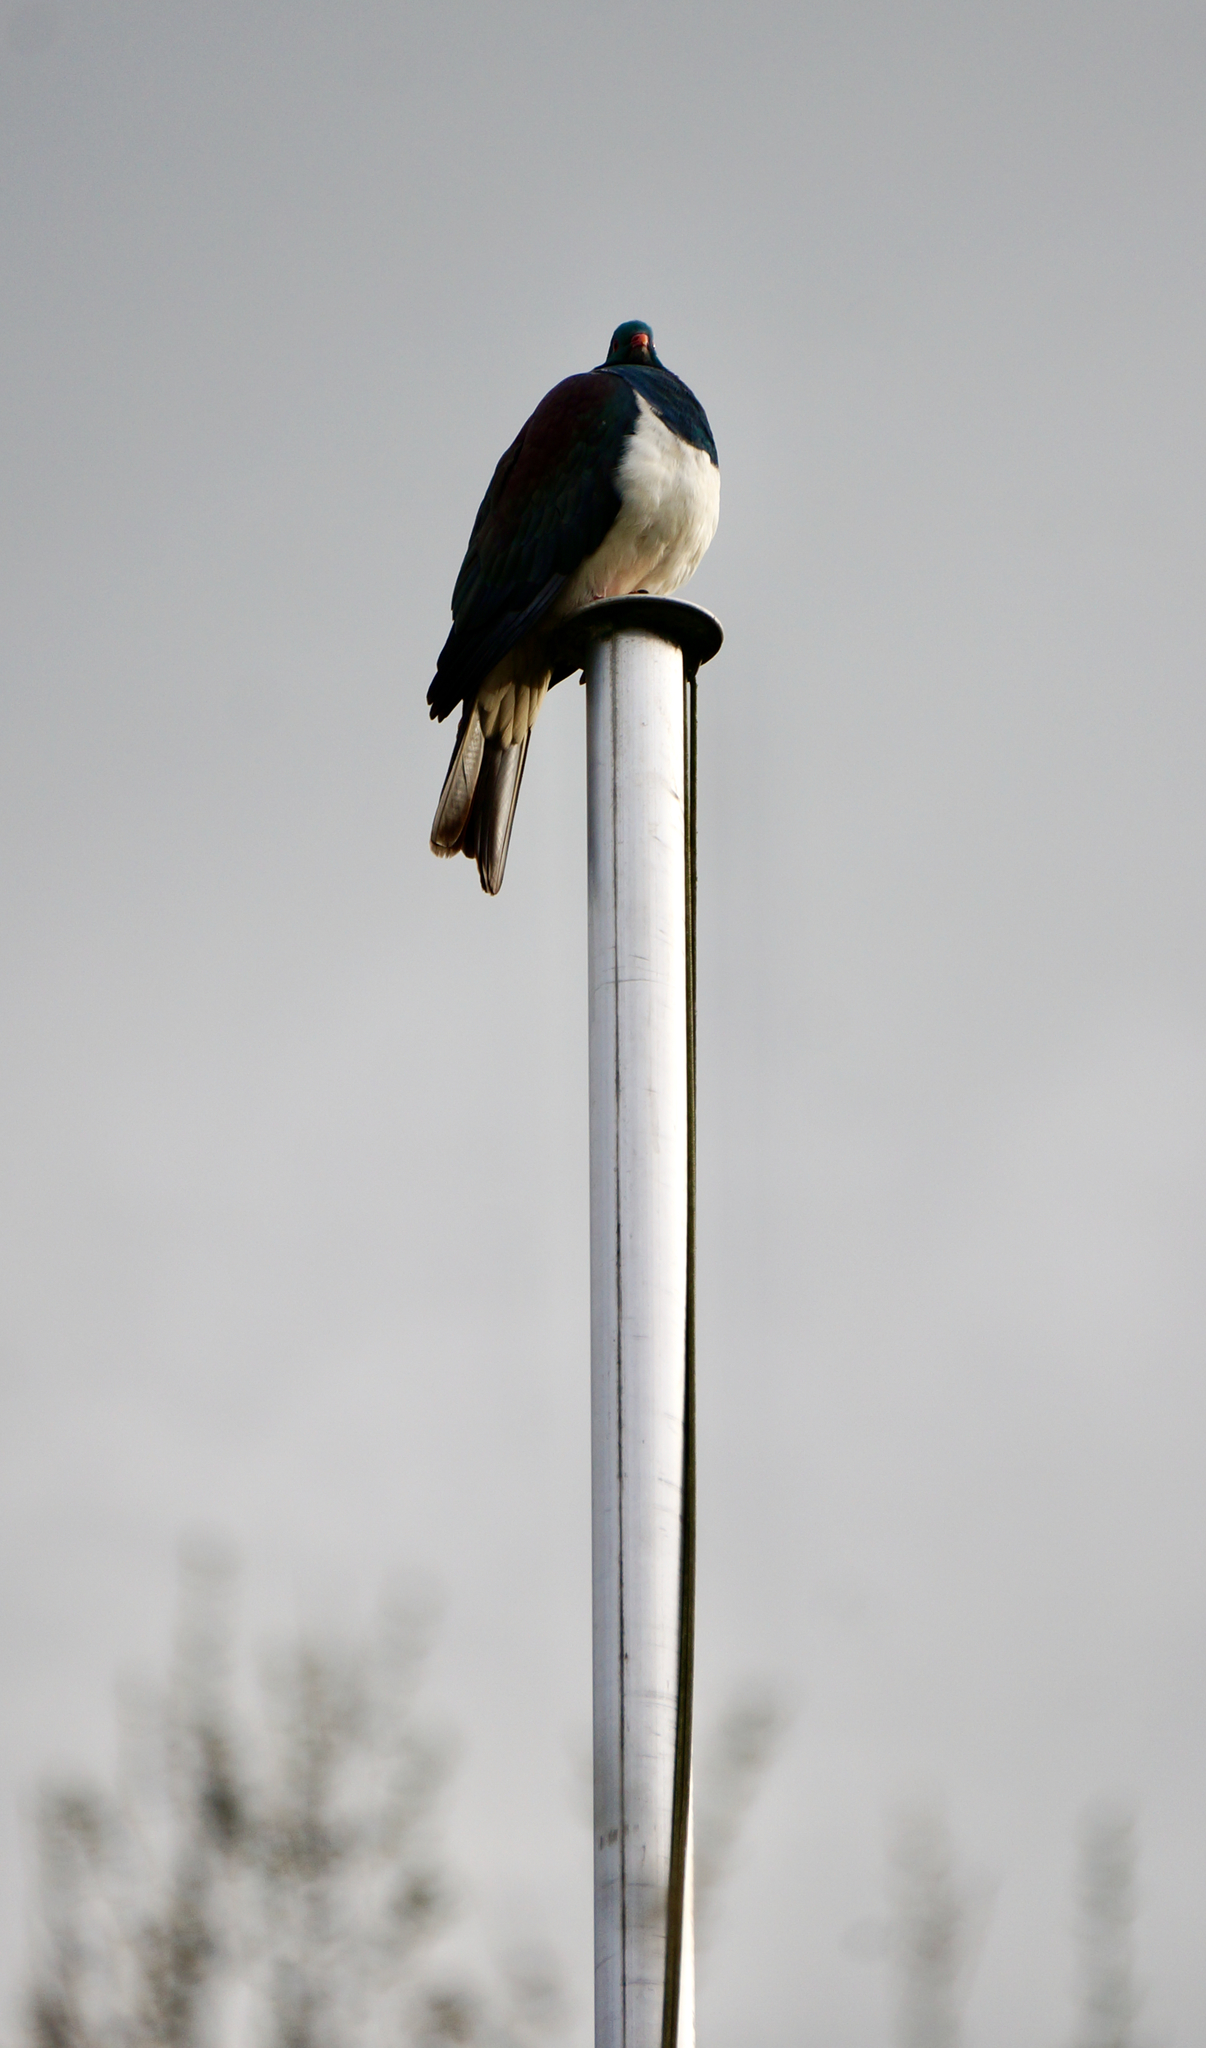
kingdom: Animalia
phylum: Chordata
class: Aves
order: Columbiformes
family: Columbidae
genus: Hemiphaga
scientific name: Hemiphaga novaeseelandiae
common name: New zealand pigeon
